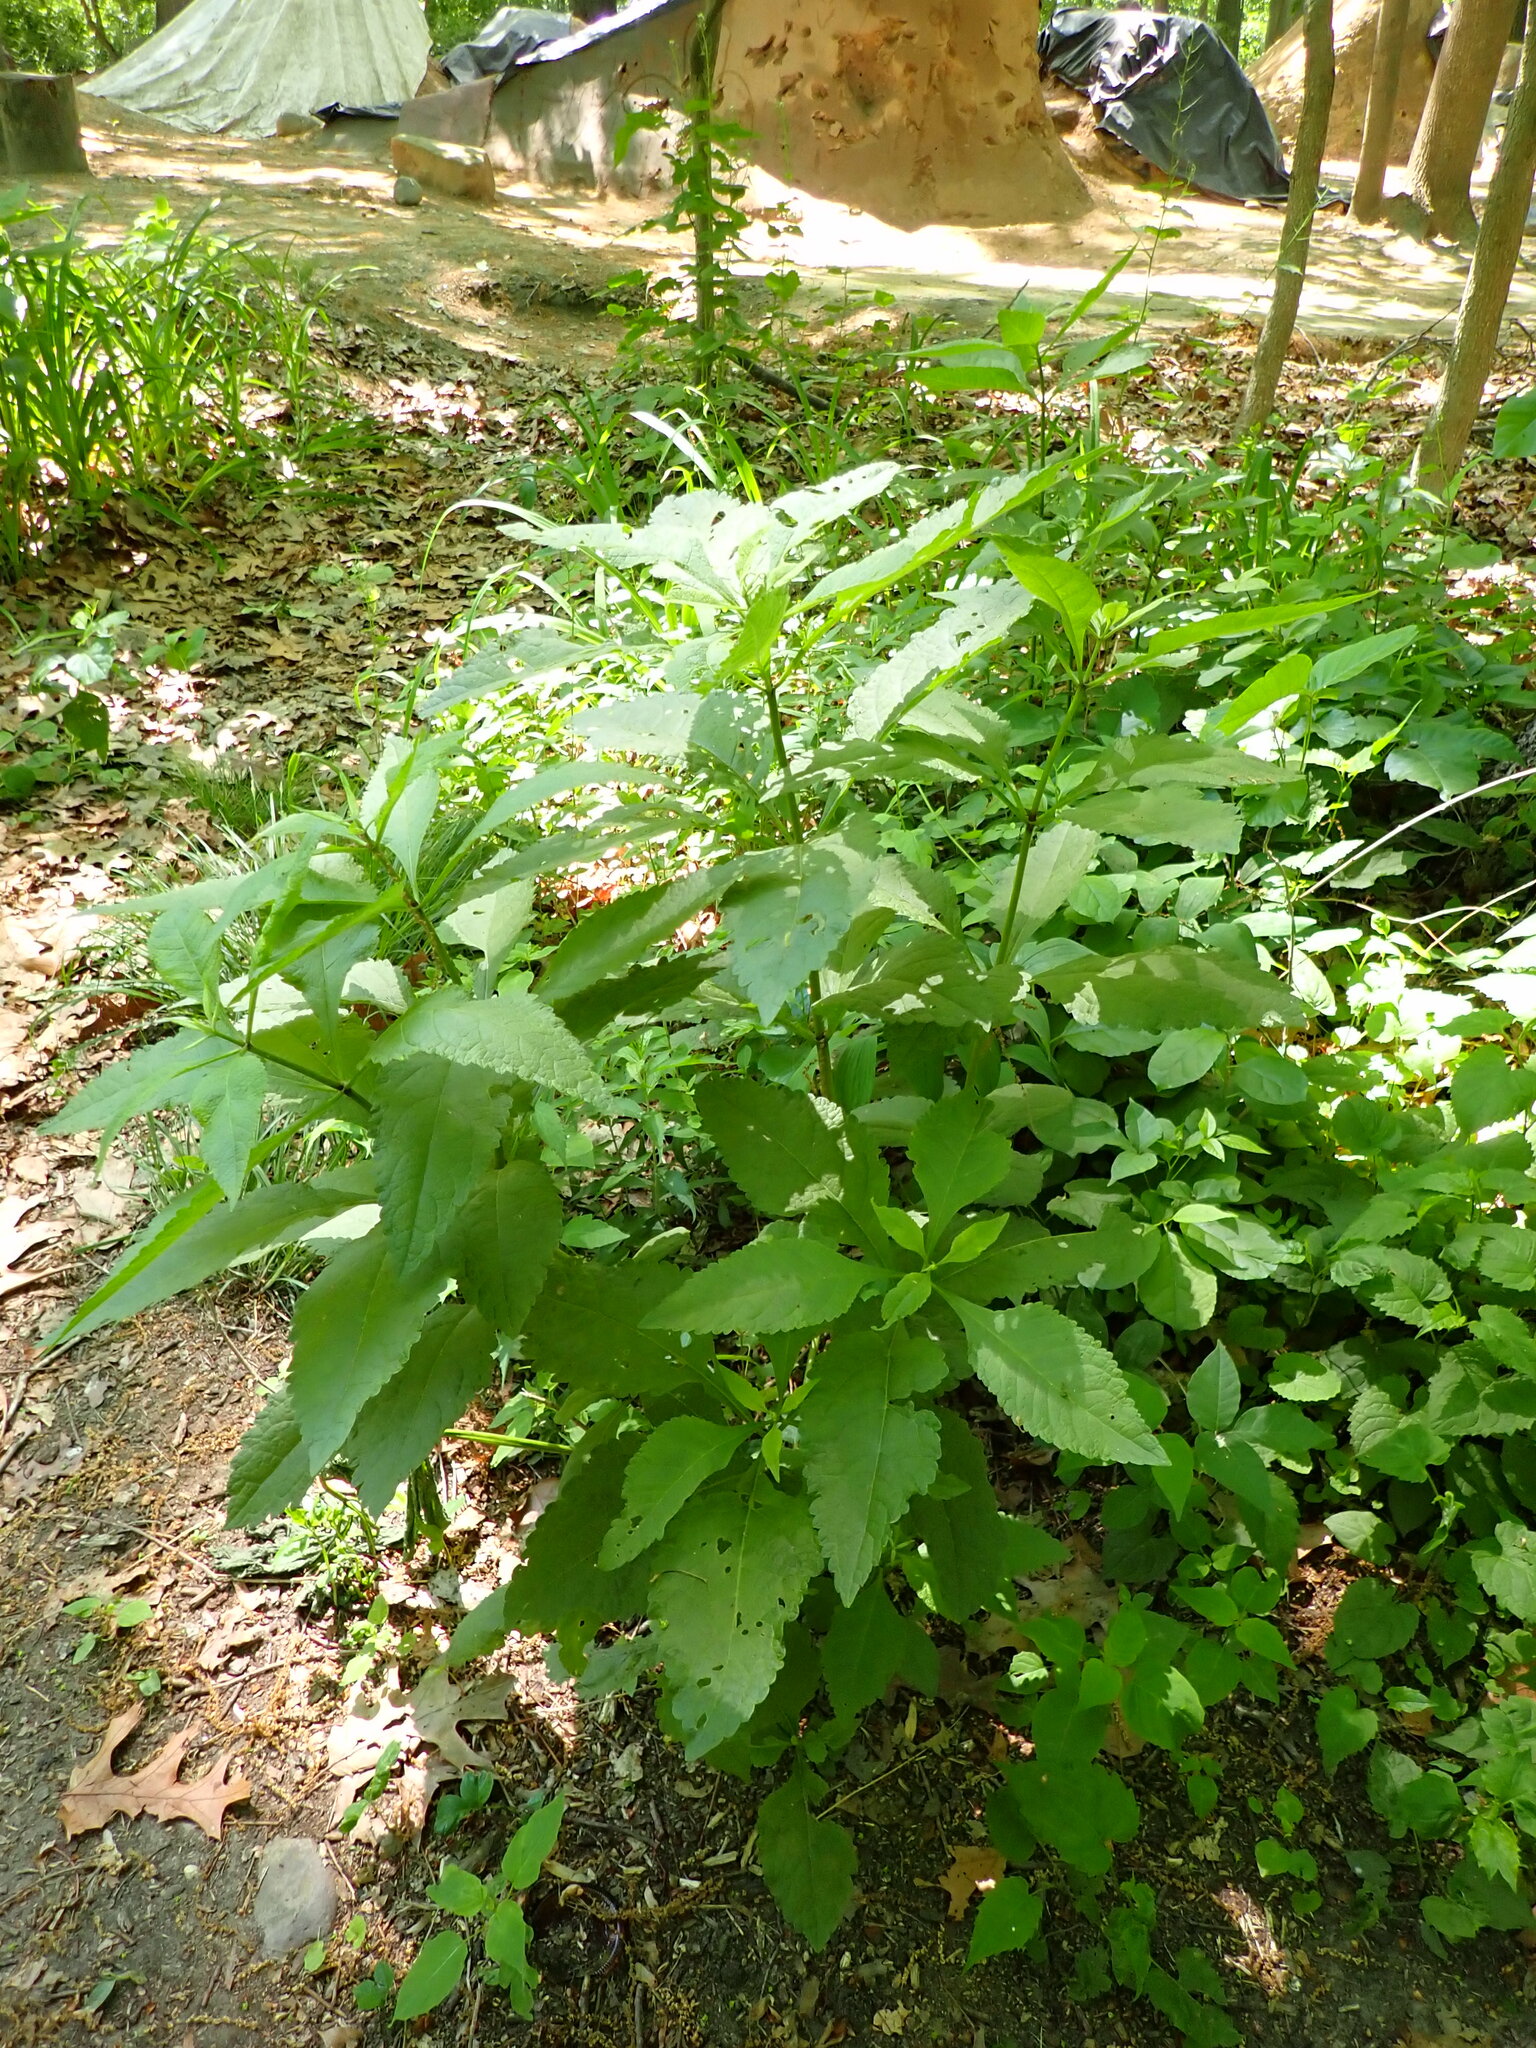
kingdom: Plantae
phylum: Tracheophyta
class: Magnoliopsida
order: Asterales
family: Asteraceae
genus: Eutrochium
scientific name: Eutrochium purpureum
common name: Gravelroot
